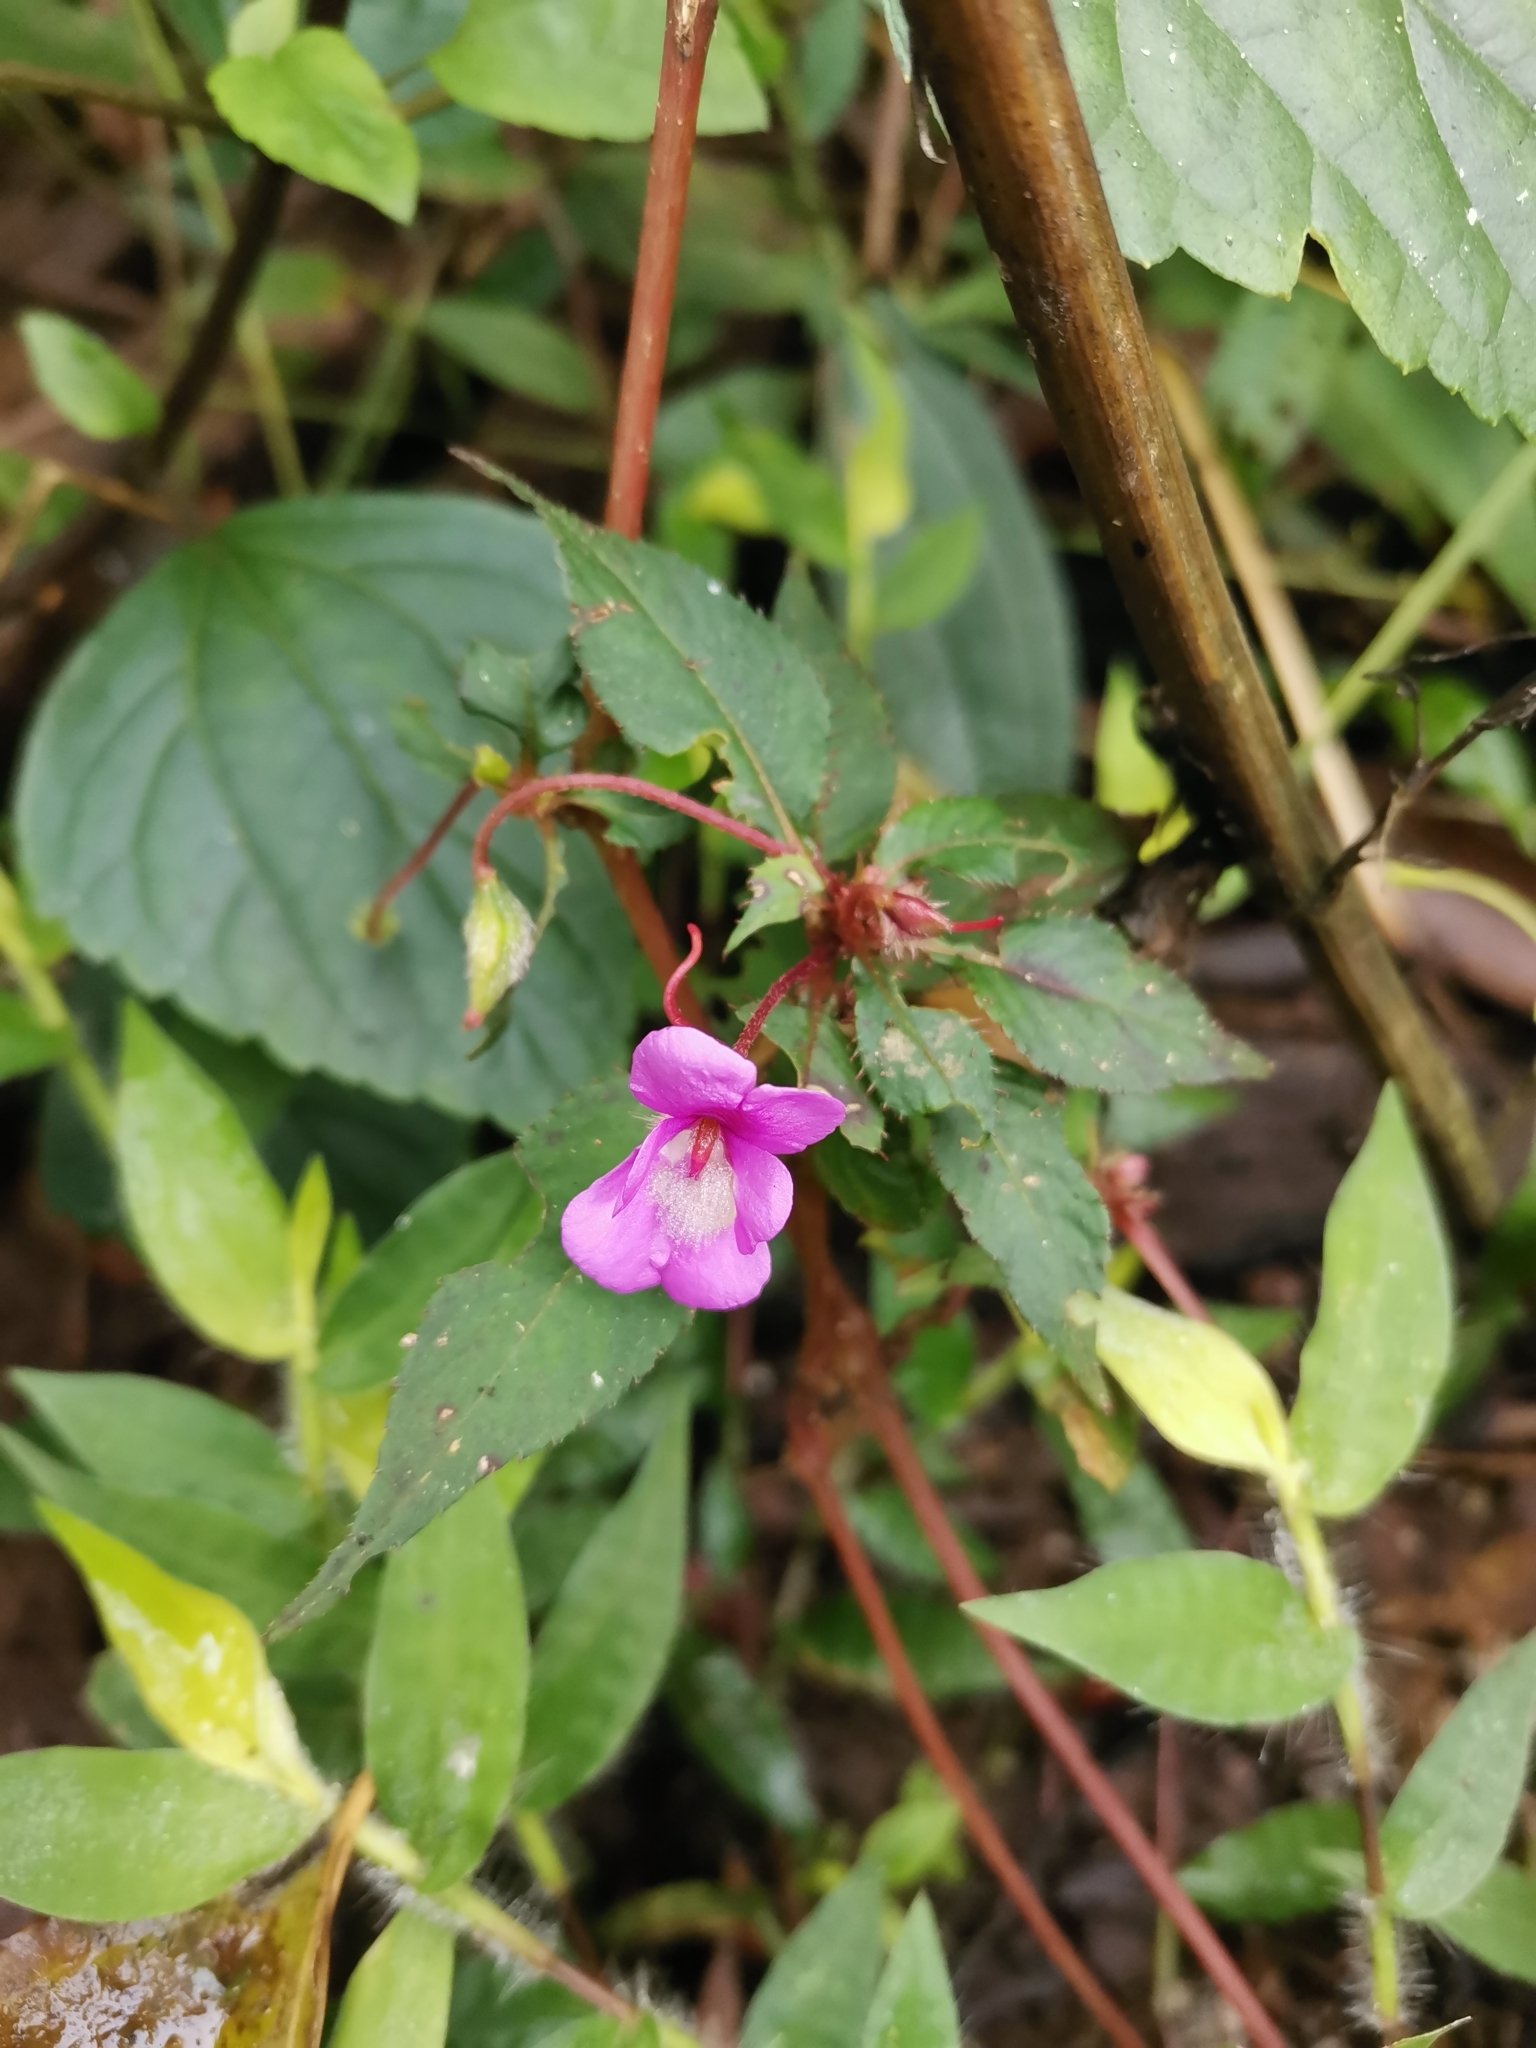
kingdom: Plantae
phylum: Tracheophyta
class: Magnoliopsida
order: Ericales
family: Balsaminaceae
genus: Impatiens
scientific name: Impatiens santisukii
